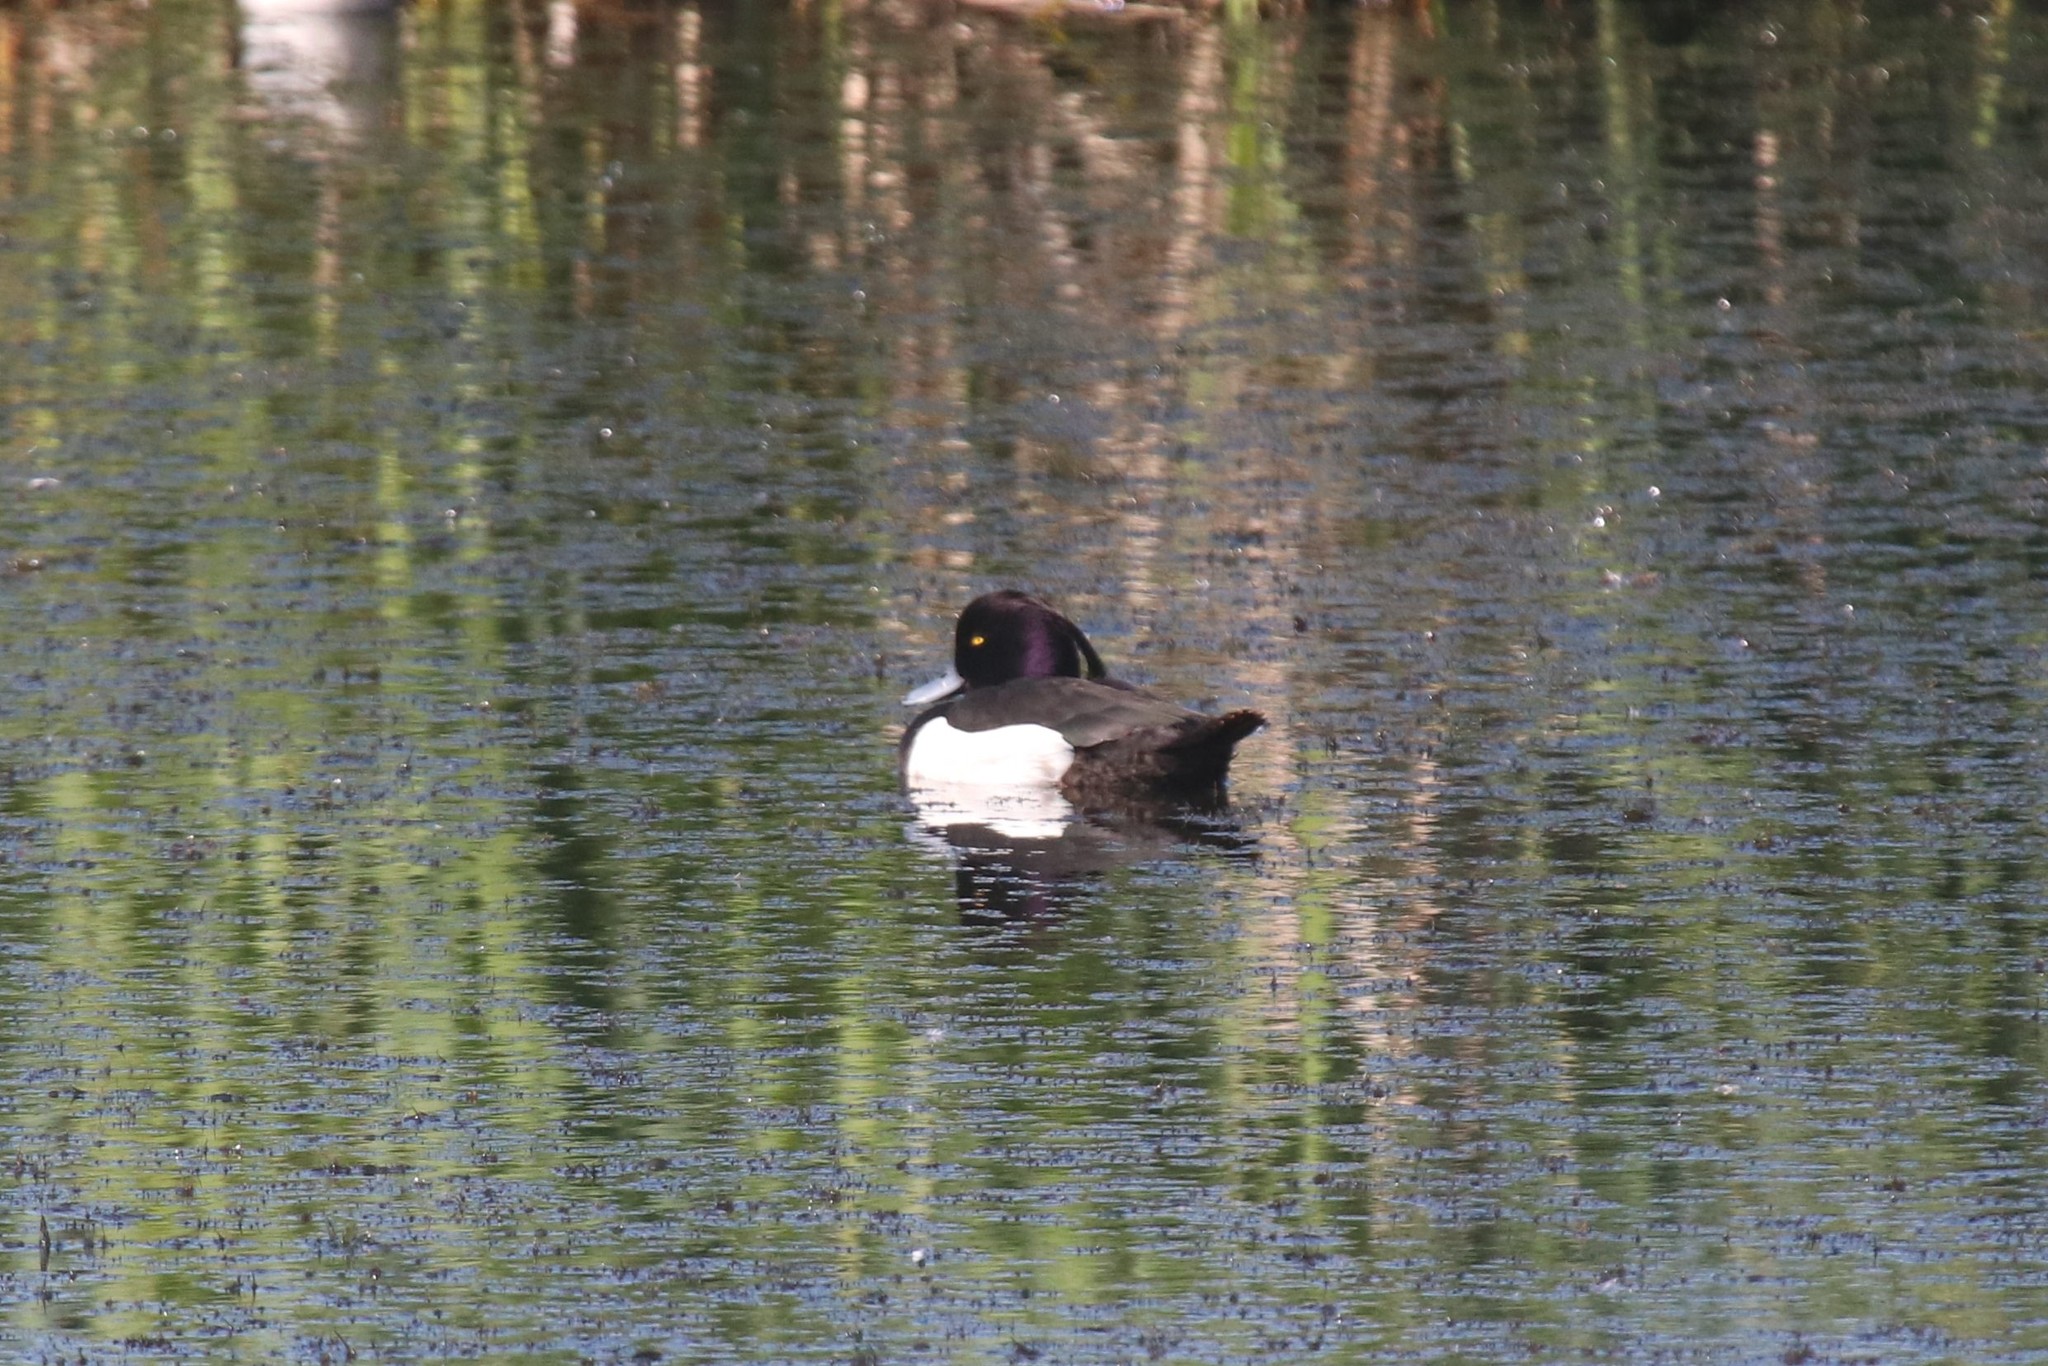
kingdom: Animalia
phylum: Chordata
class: Aves
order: Anseriformes
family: Anatidae
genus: Aythya
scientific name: Aythya fuligula
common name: Tufted duck
